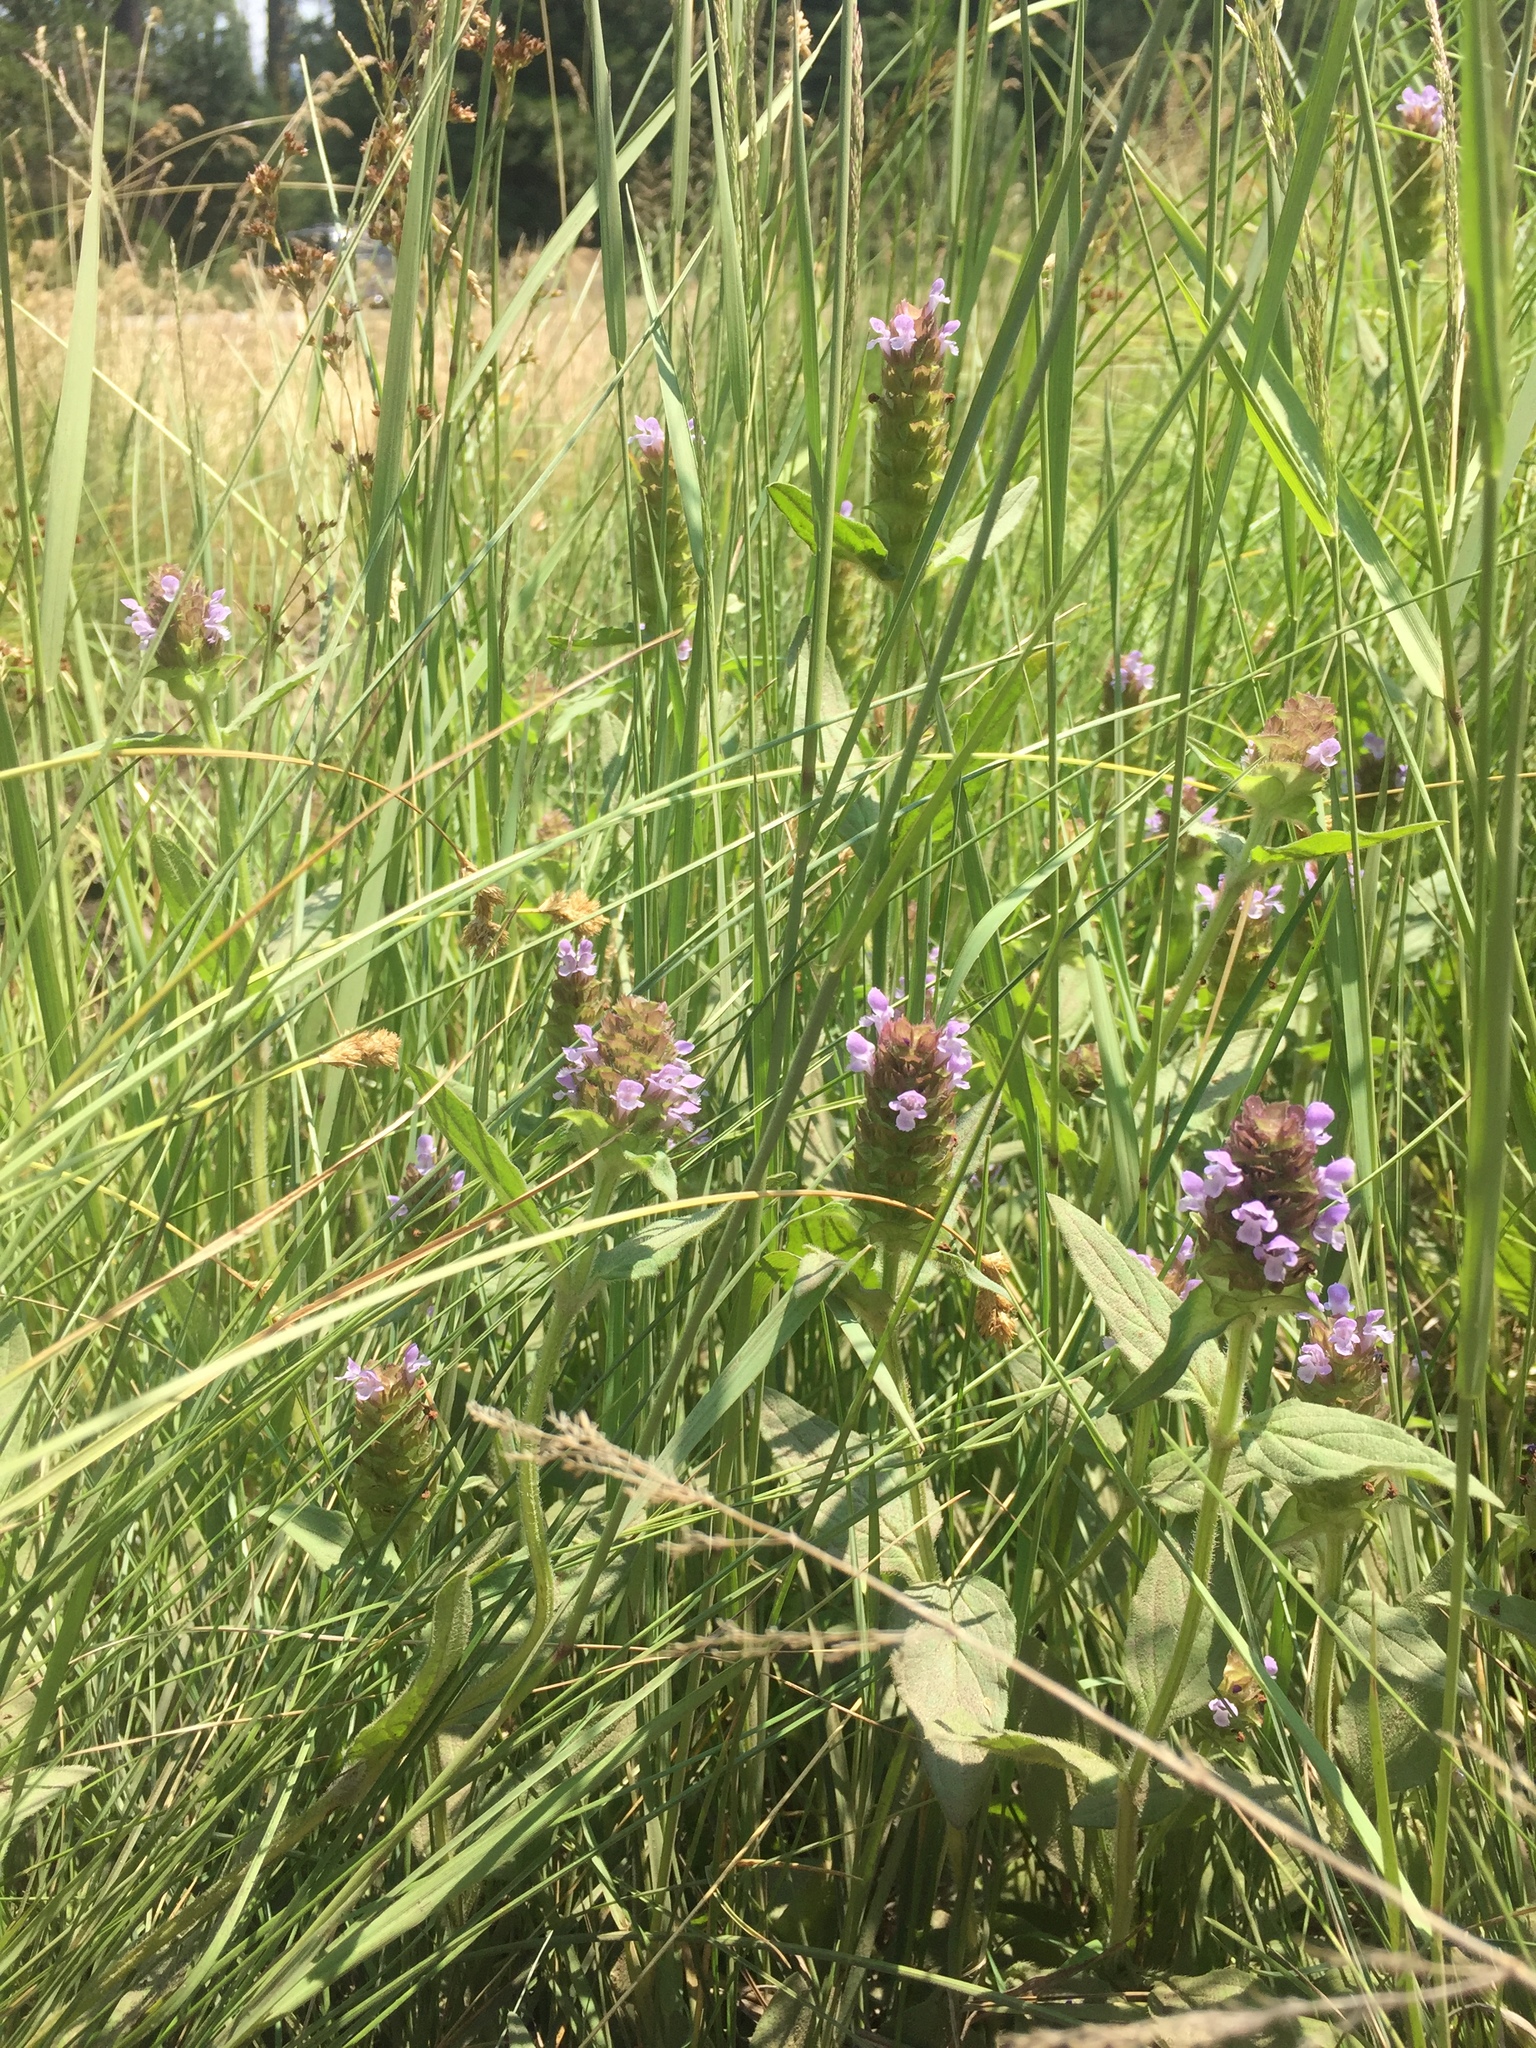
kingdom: Plantae
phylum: Tracheophyta
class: Magnoliopsida
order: Lamiales
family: Lamiaceae
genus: Prunella
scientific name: Prunella vulgaris
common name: Heal-all
